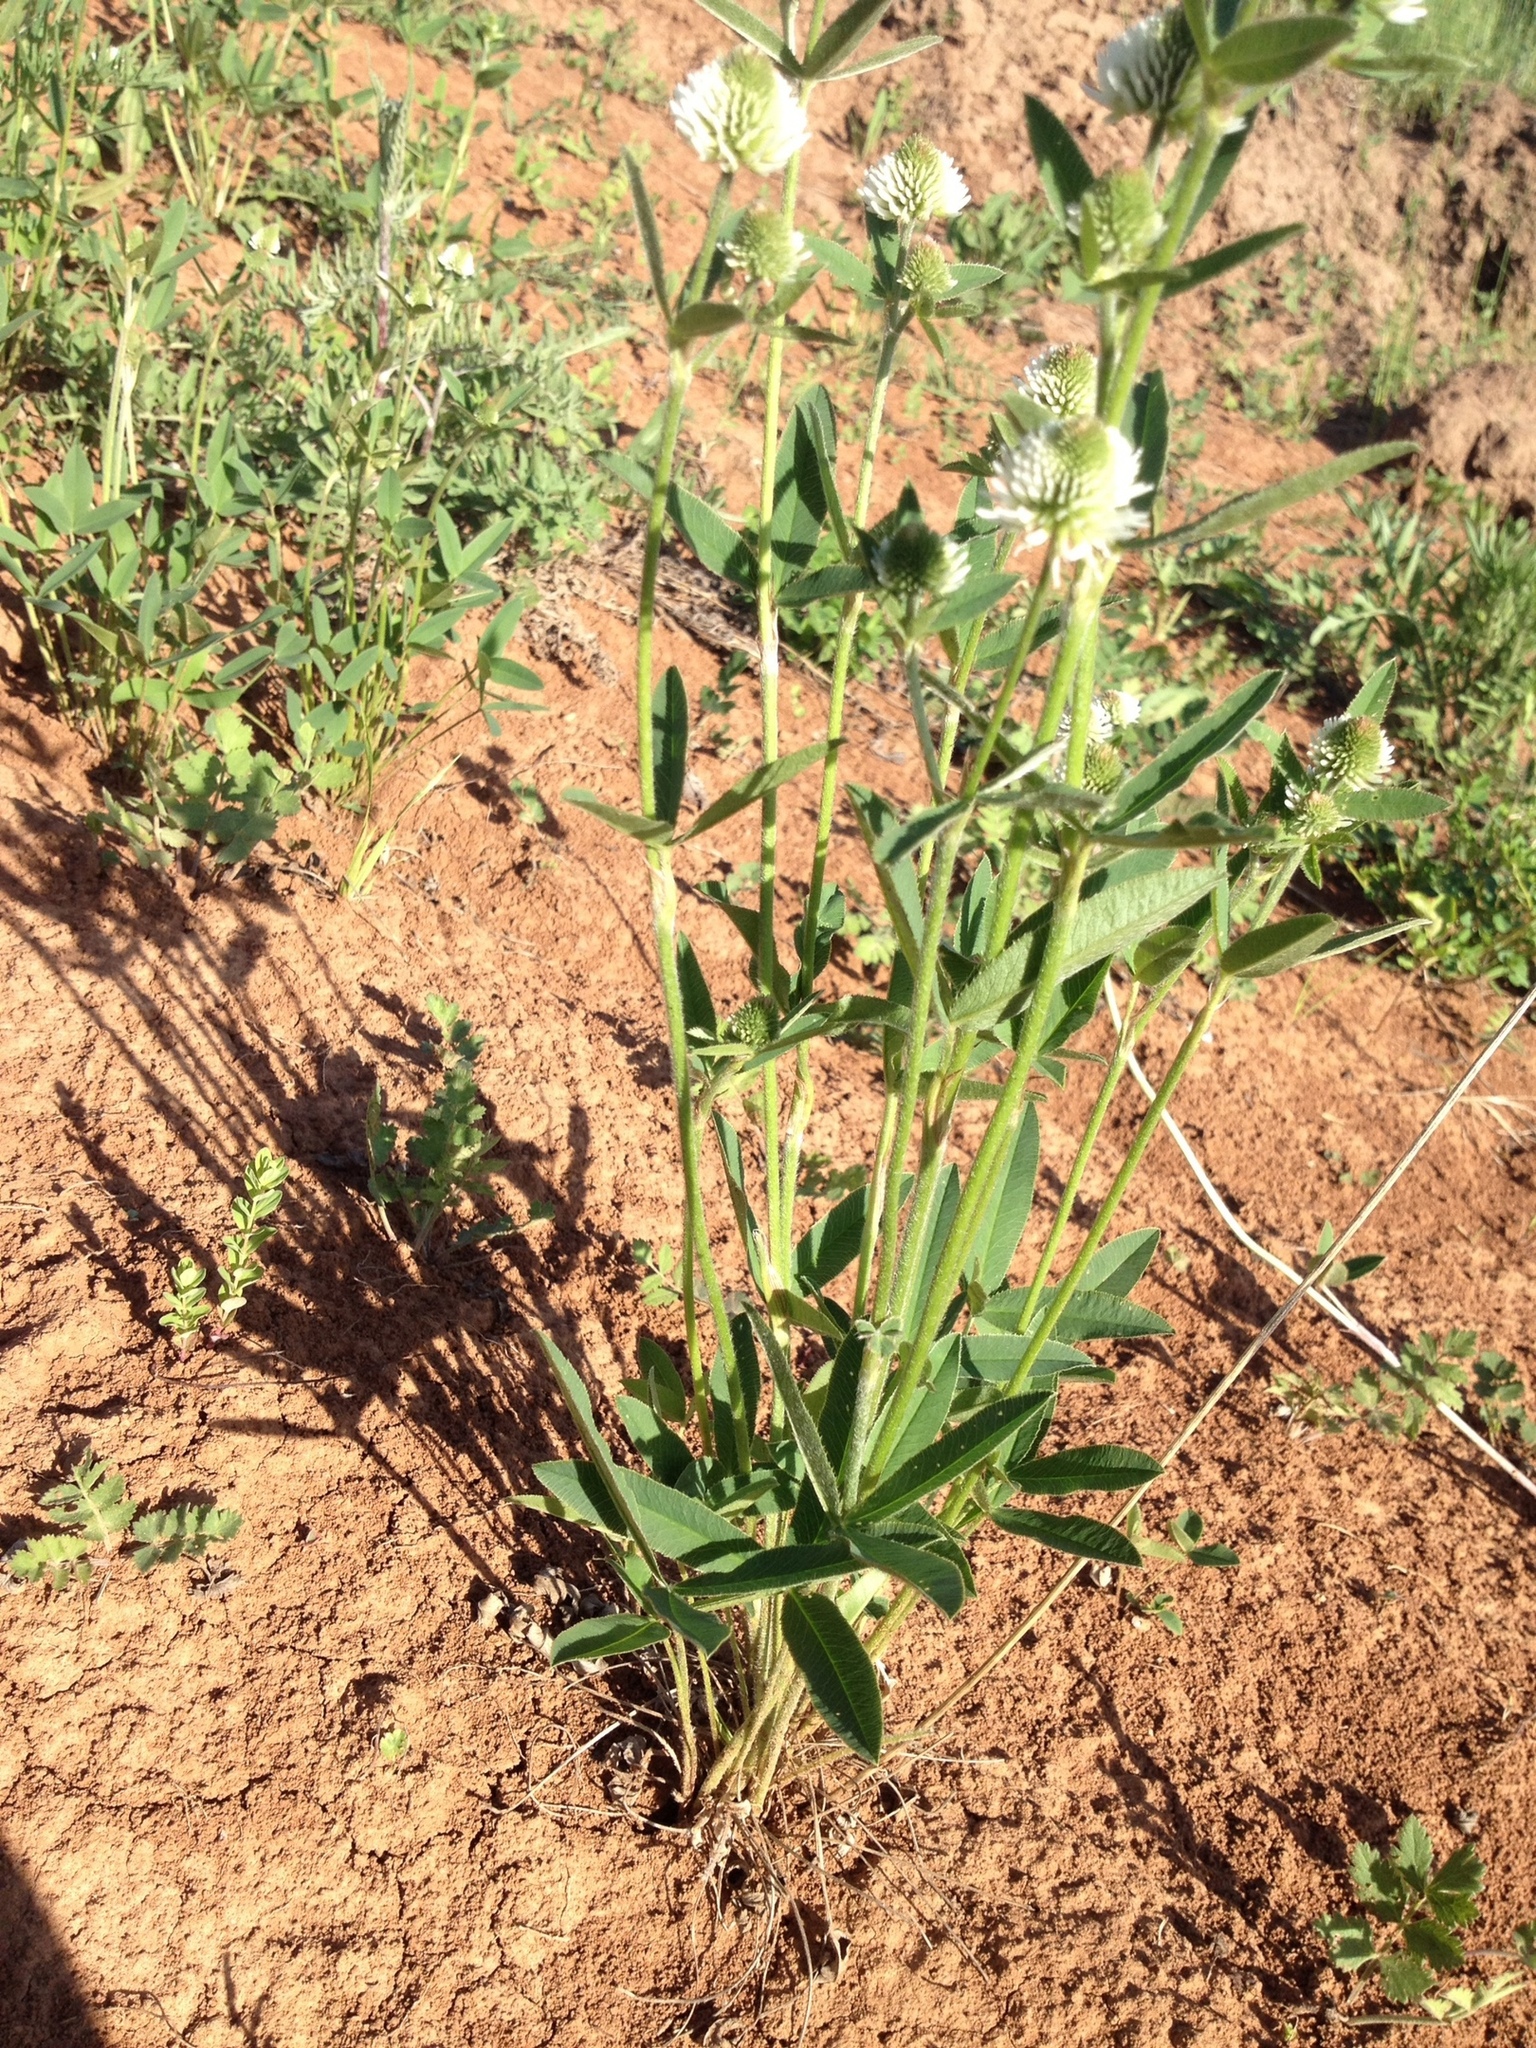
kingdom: Plantae
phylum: Tracheophyta
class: Magnoliopsida
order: Fabales
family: Fabaceae
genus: Trifolium
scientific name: Trifolium montanum
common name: Mountain clover
